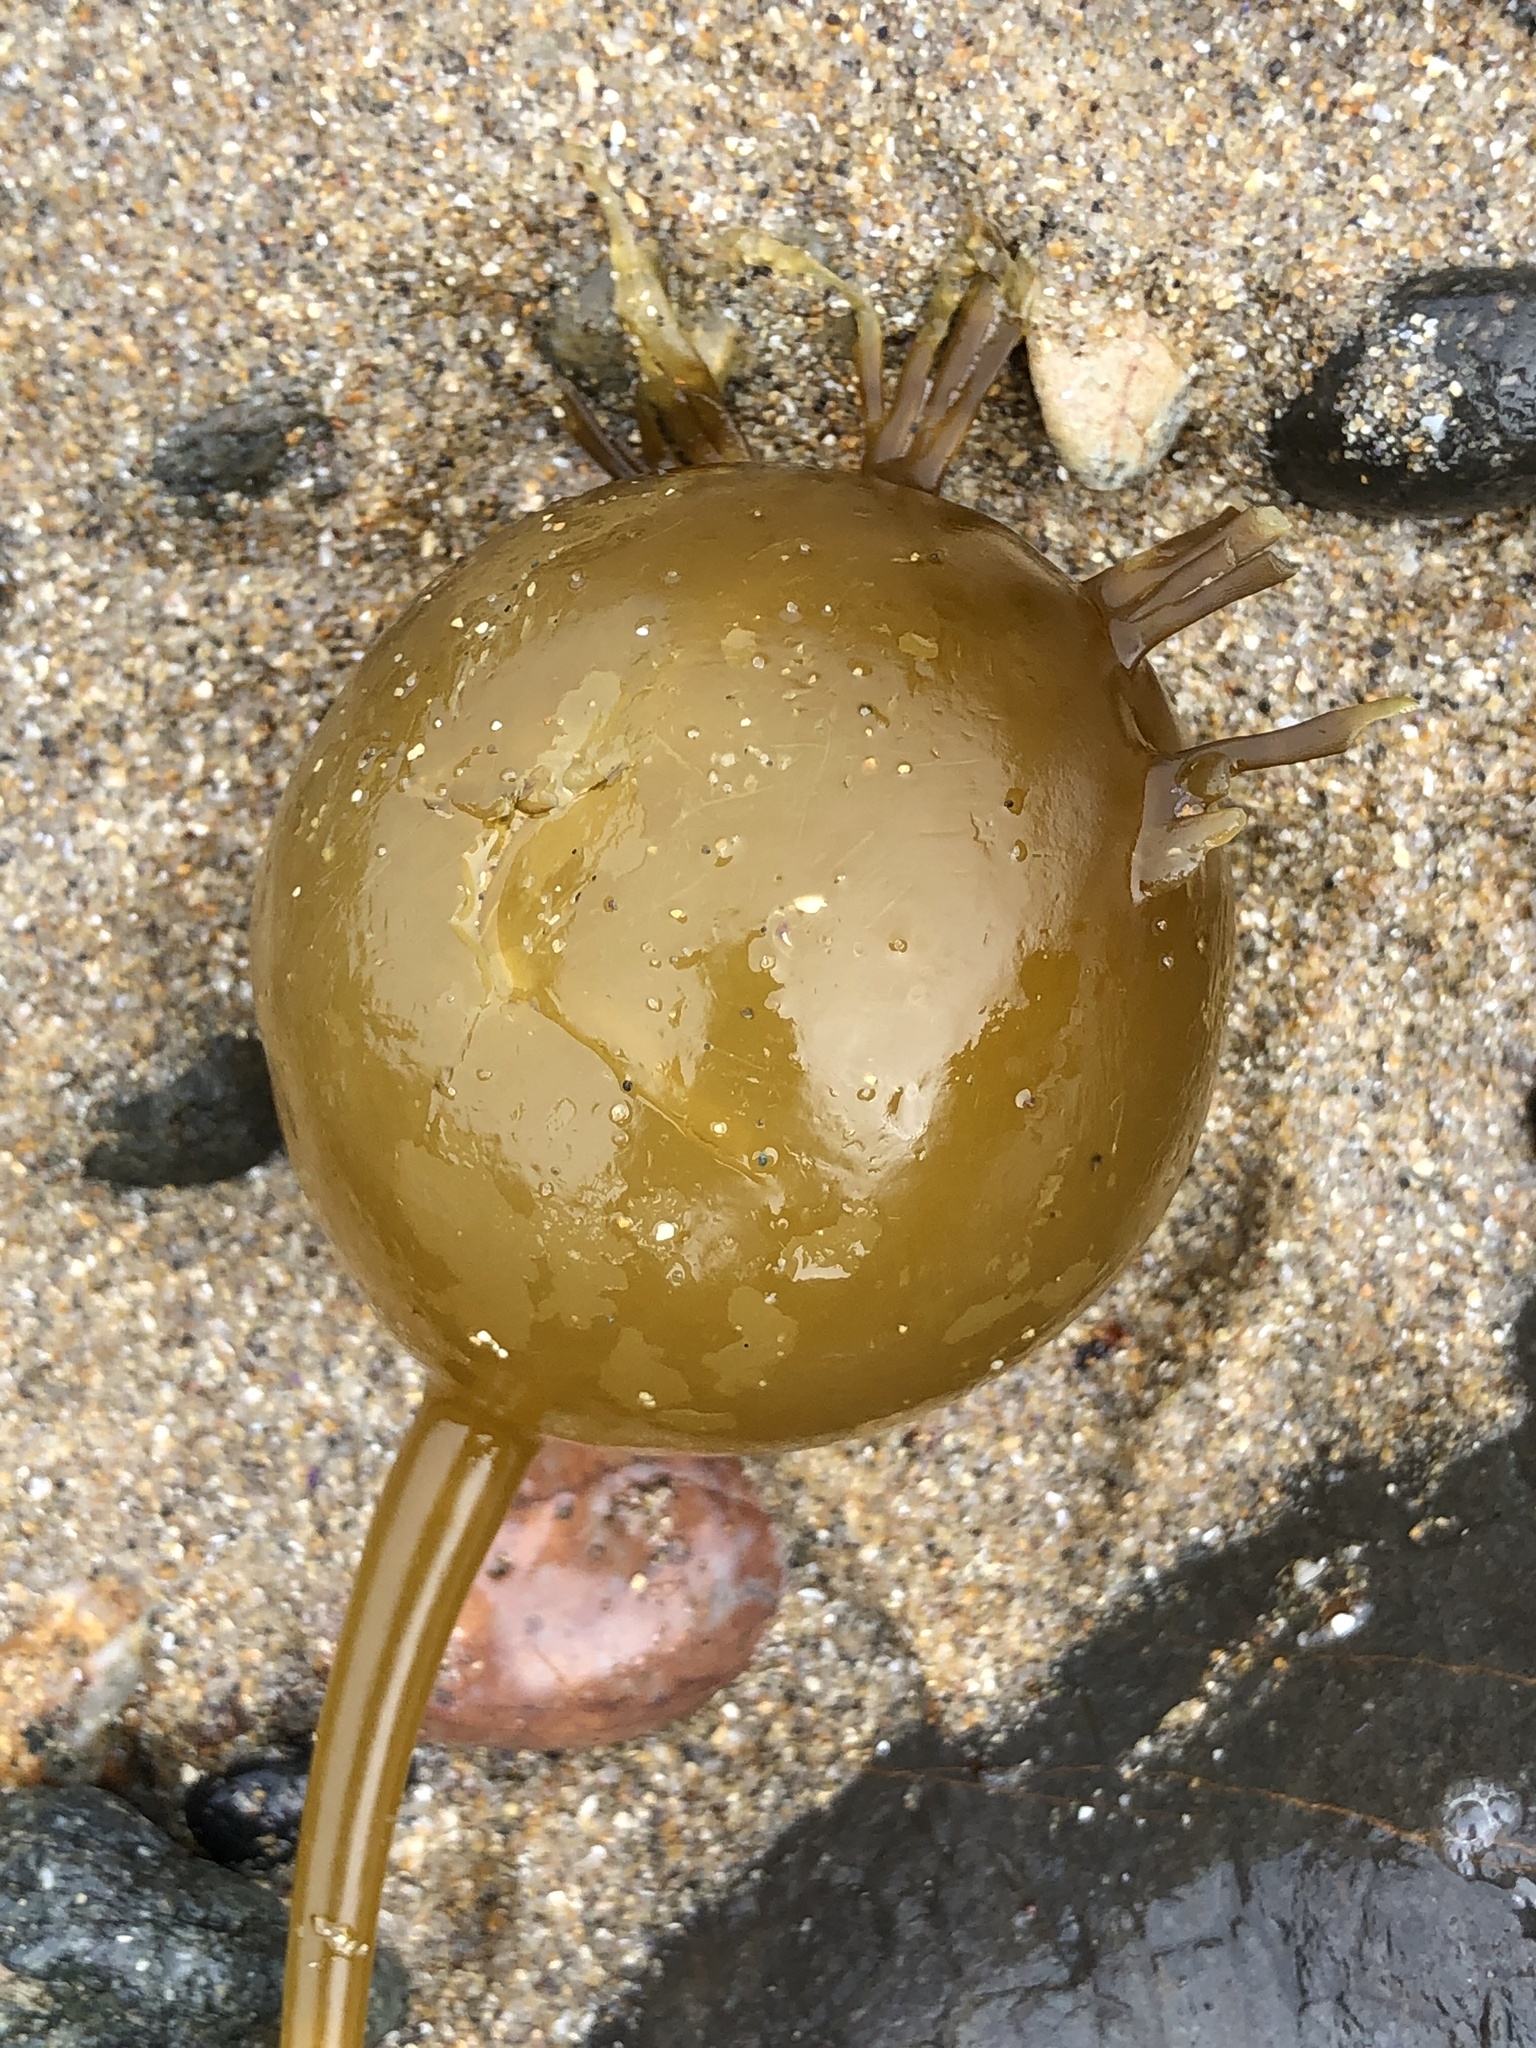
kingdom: Chromista
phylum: Ochrophyta
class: Phaeophyceae
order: Laminariales
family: Laminariaceae
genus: Nereocystis
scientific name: Nereocystis luetkeana
